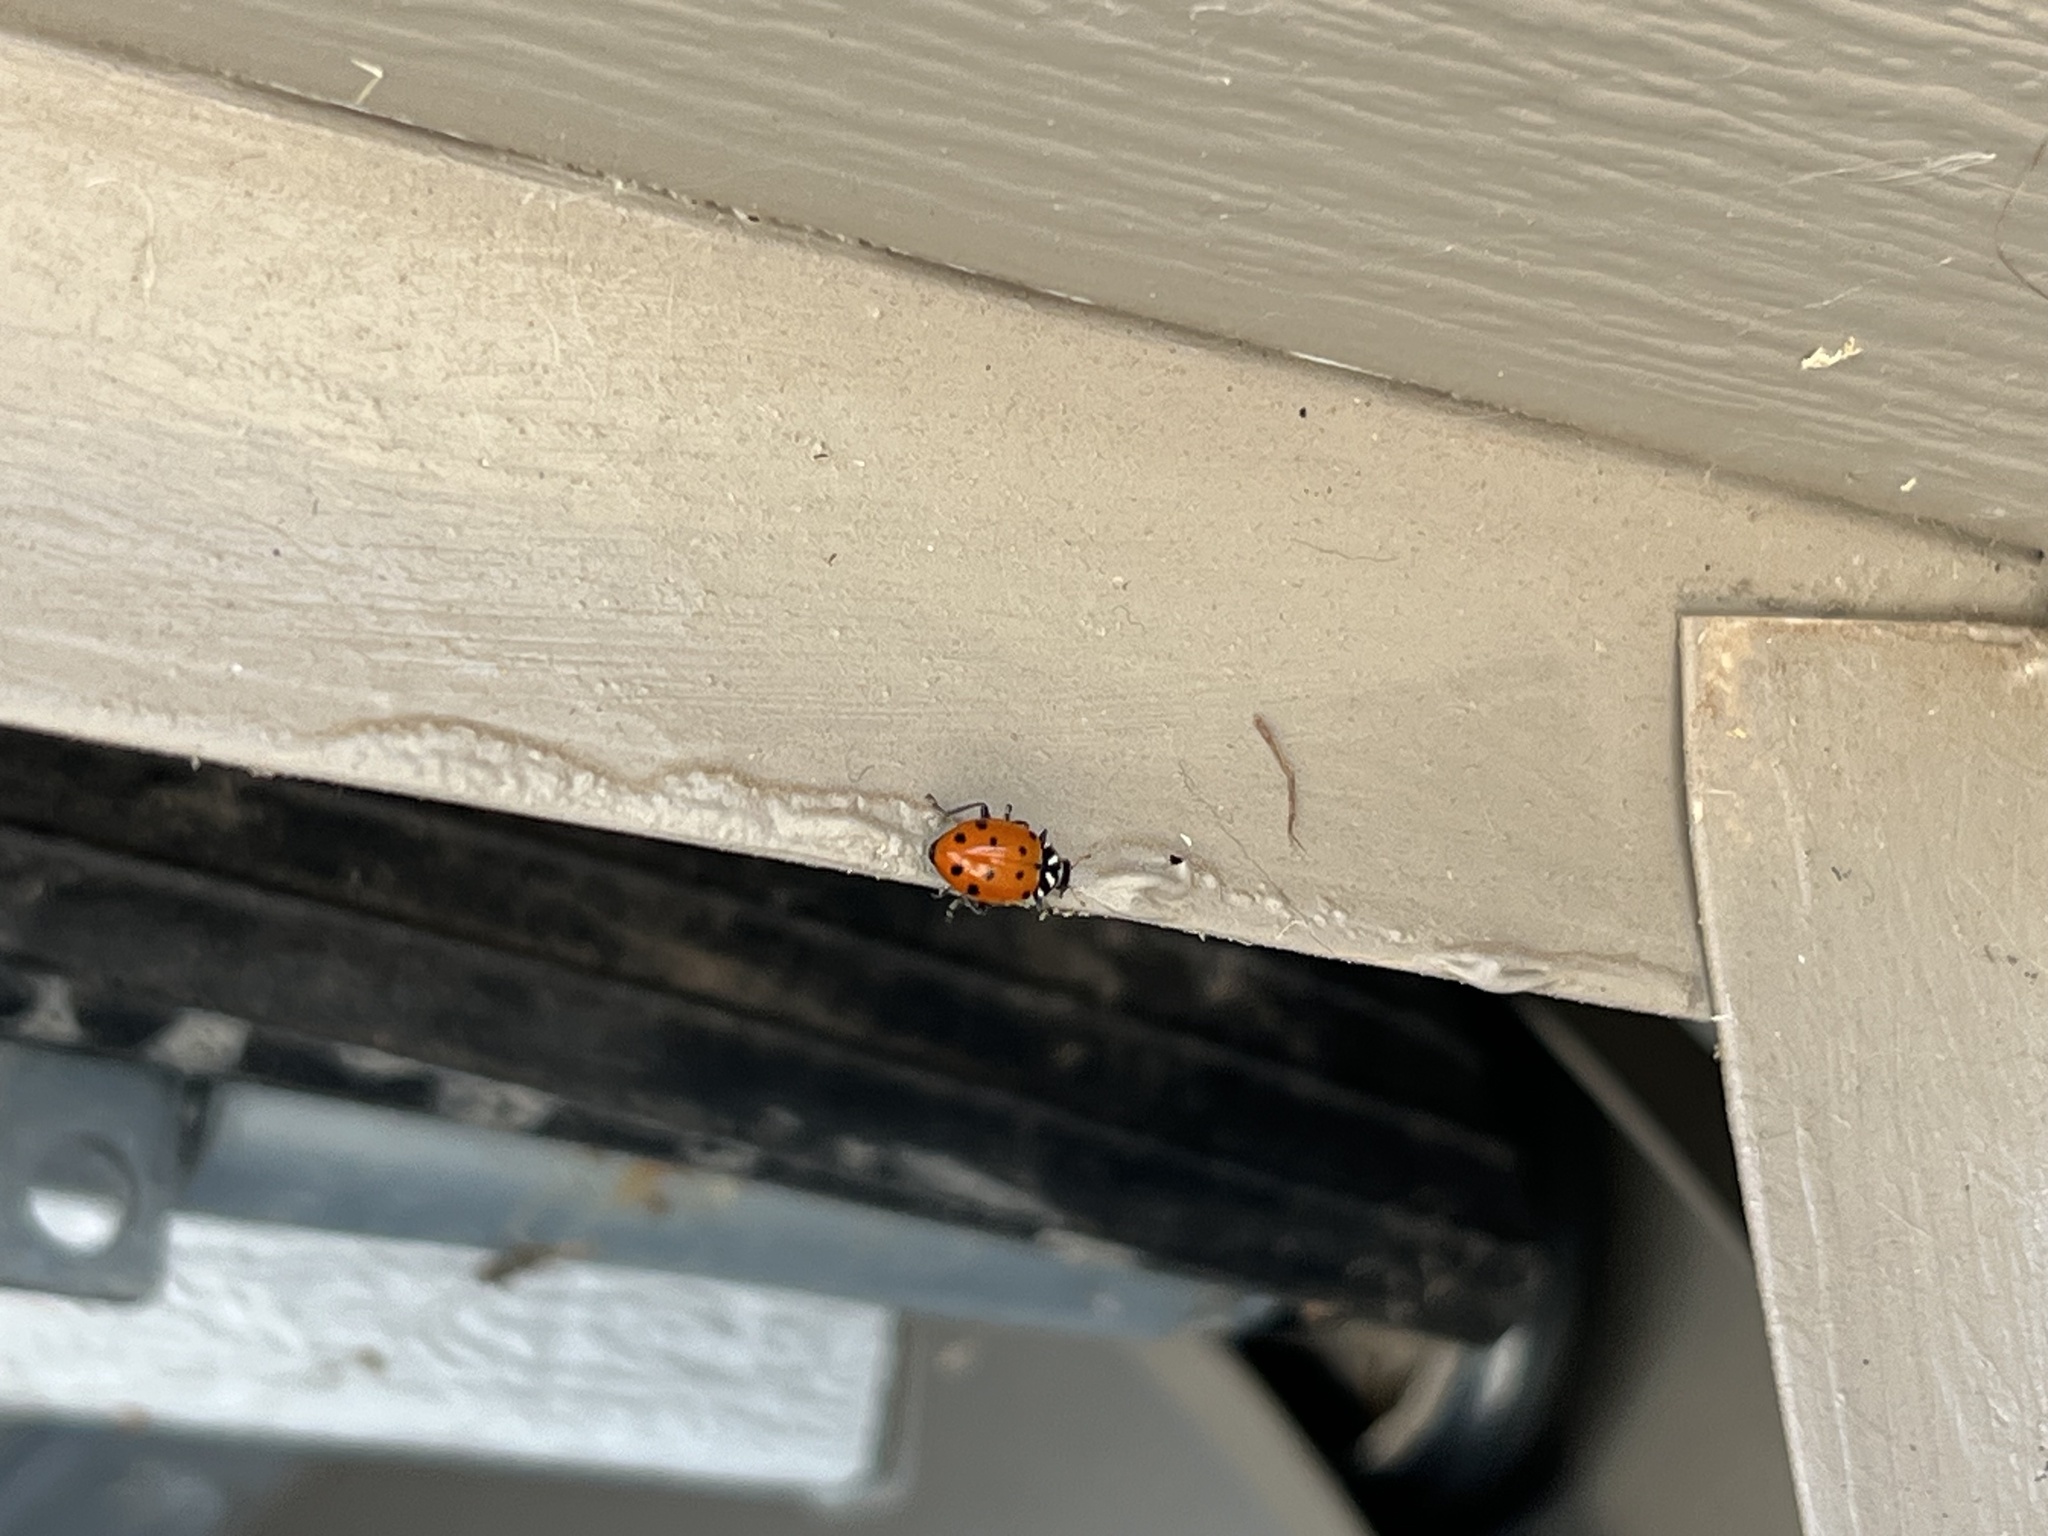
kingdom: Animalia
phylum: Arthropoda
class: Insecta
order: Coleoptera
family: Coccinellidae
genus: Hippodamia
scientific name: Hippodamia convergens
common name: Convergent lady beetle
